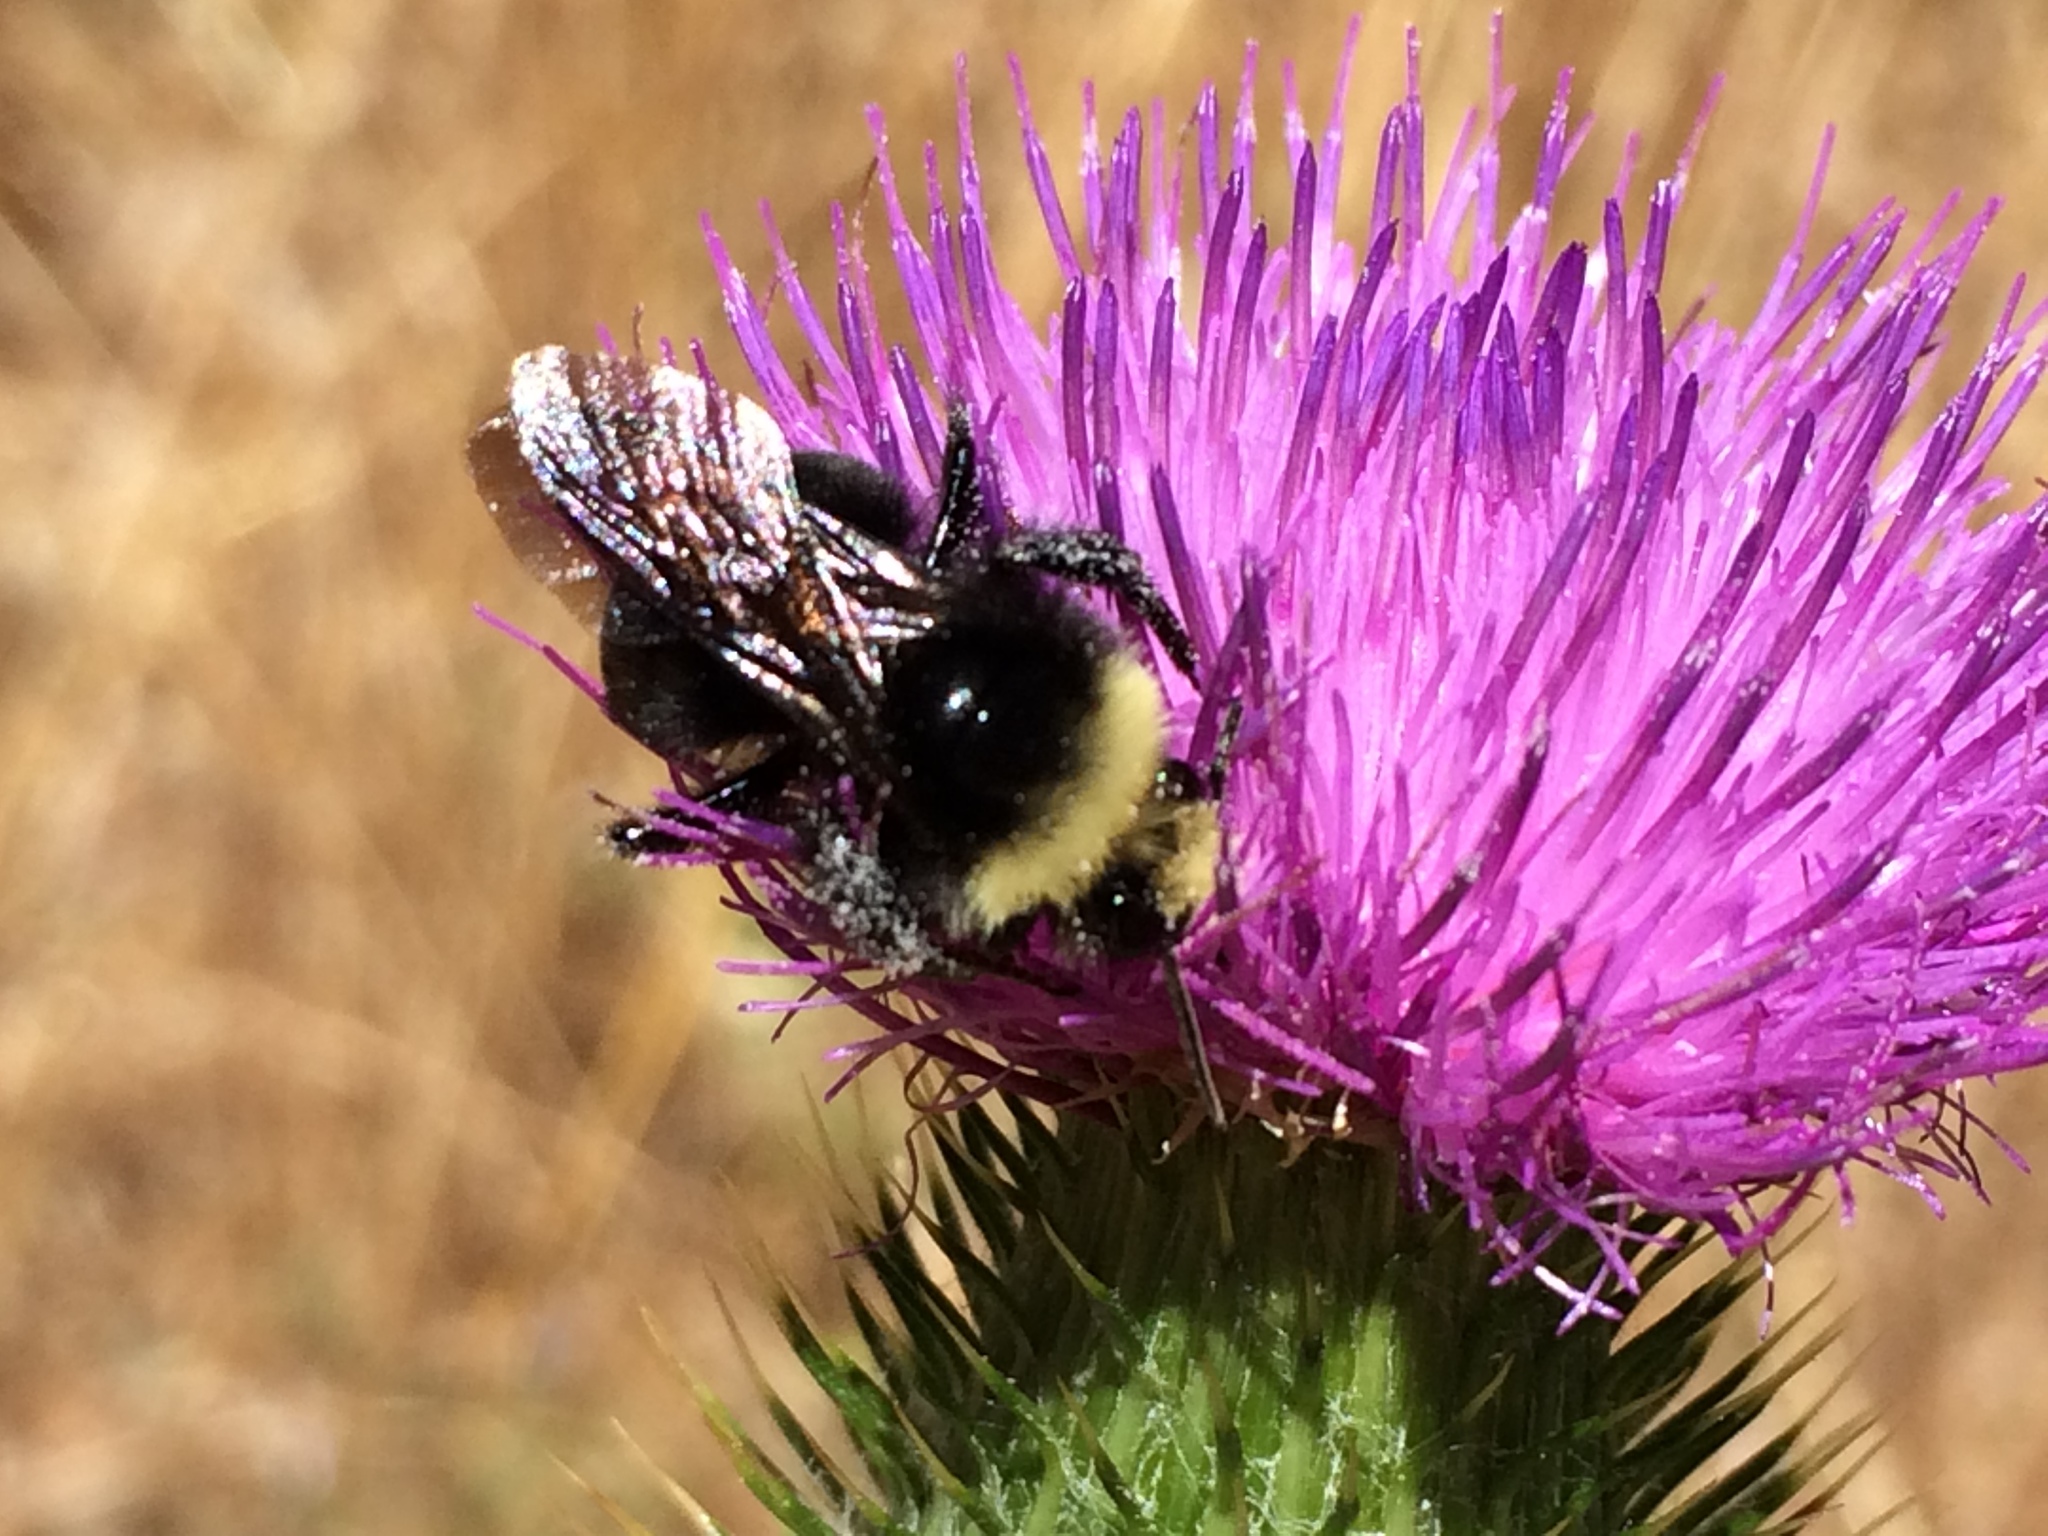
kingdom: Animalia
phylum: Arthropoda
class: Insecta
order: Hymenoptera
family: Apidae
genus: Pyrobombus
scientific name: Pyrobombus
